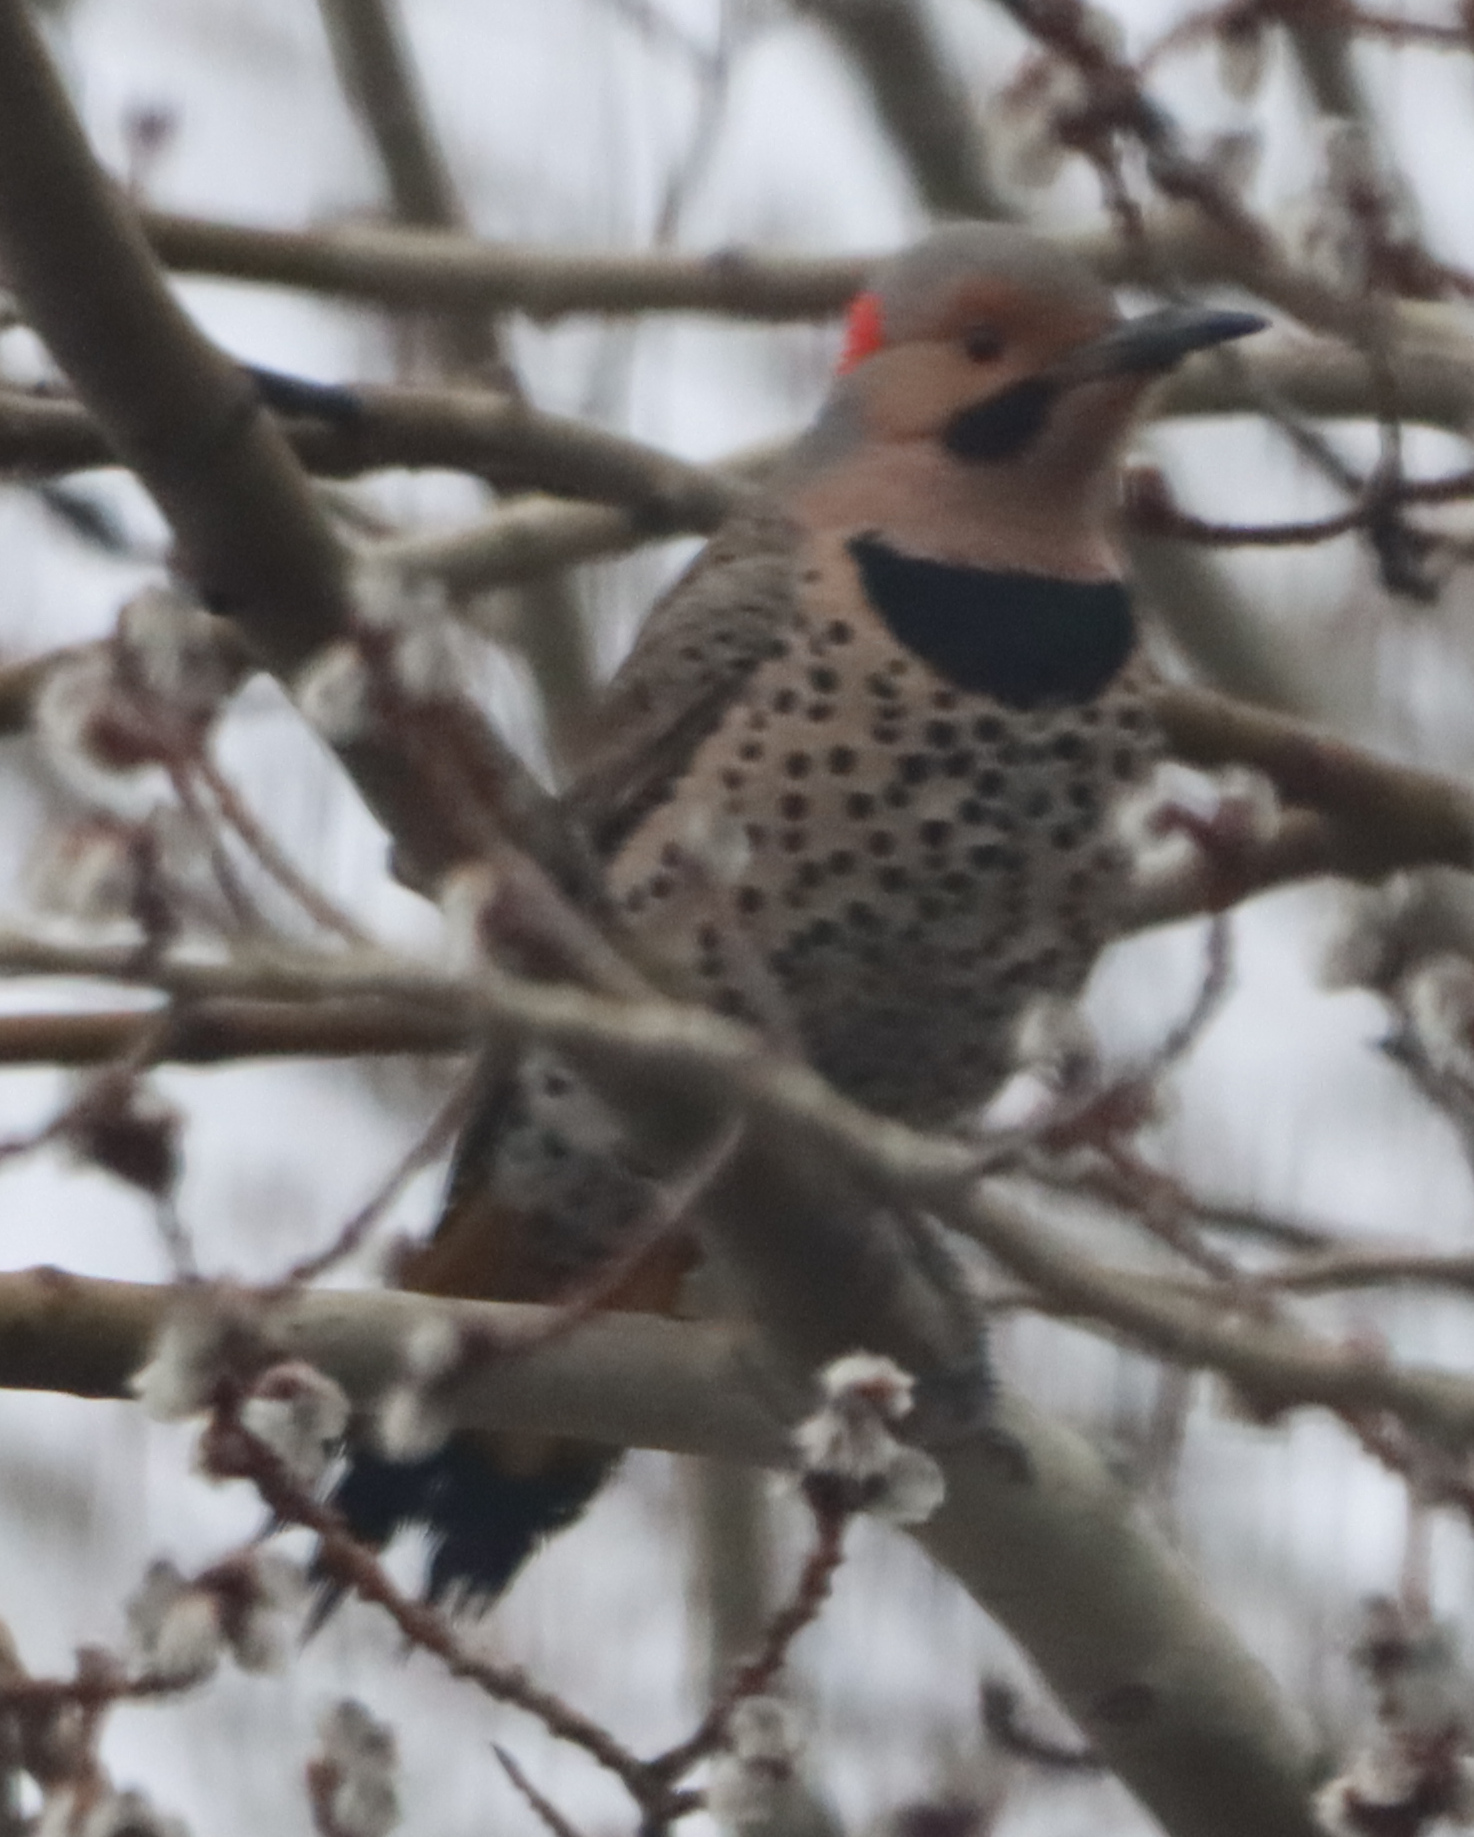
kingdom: Animalia
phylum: Chordata
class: Aves
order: Piciformes
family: Picidae
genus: Colaptes
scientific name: Colaptes auratus
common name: Northern flicker
